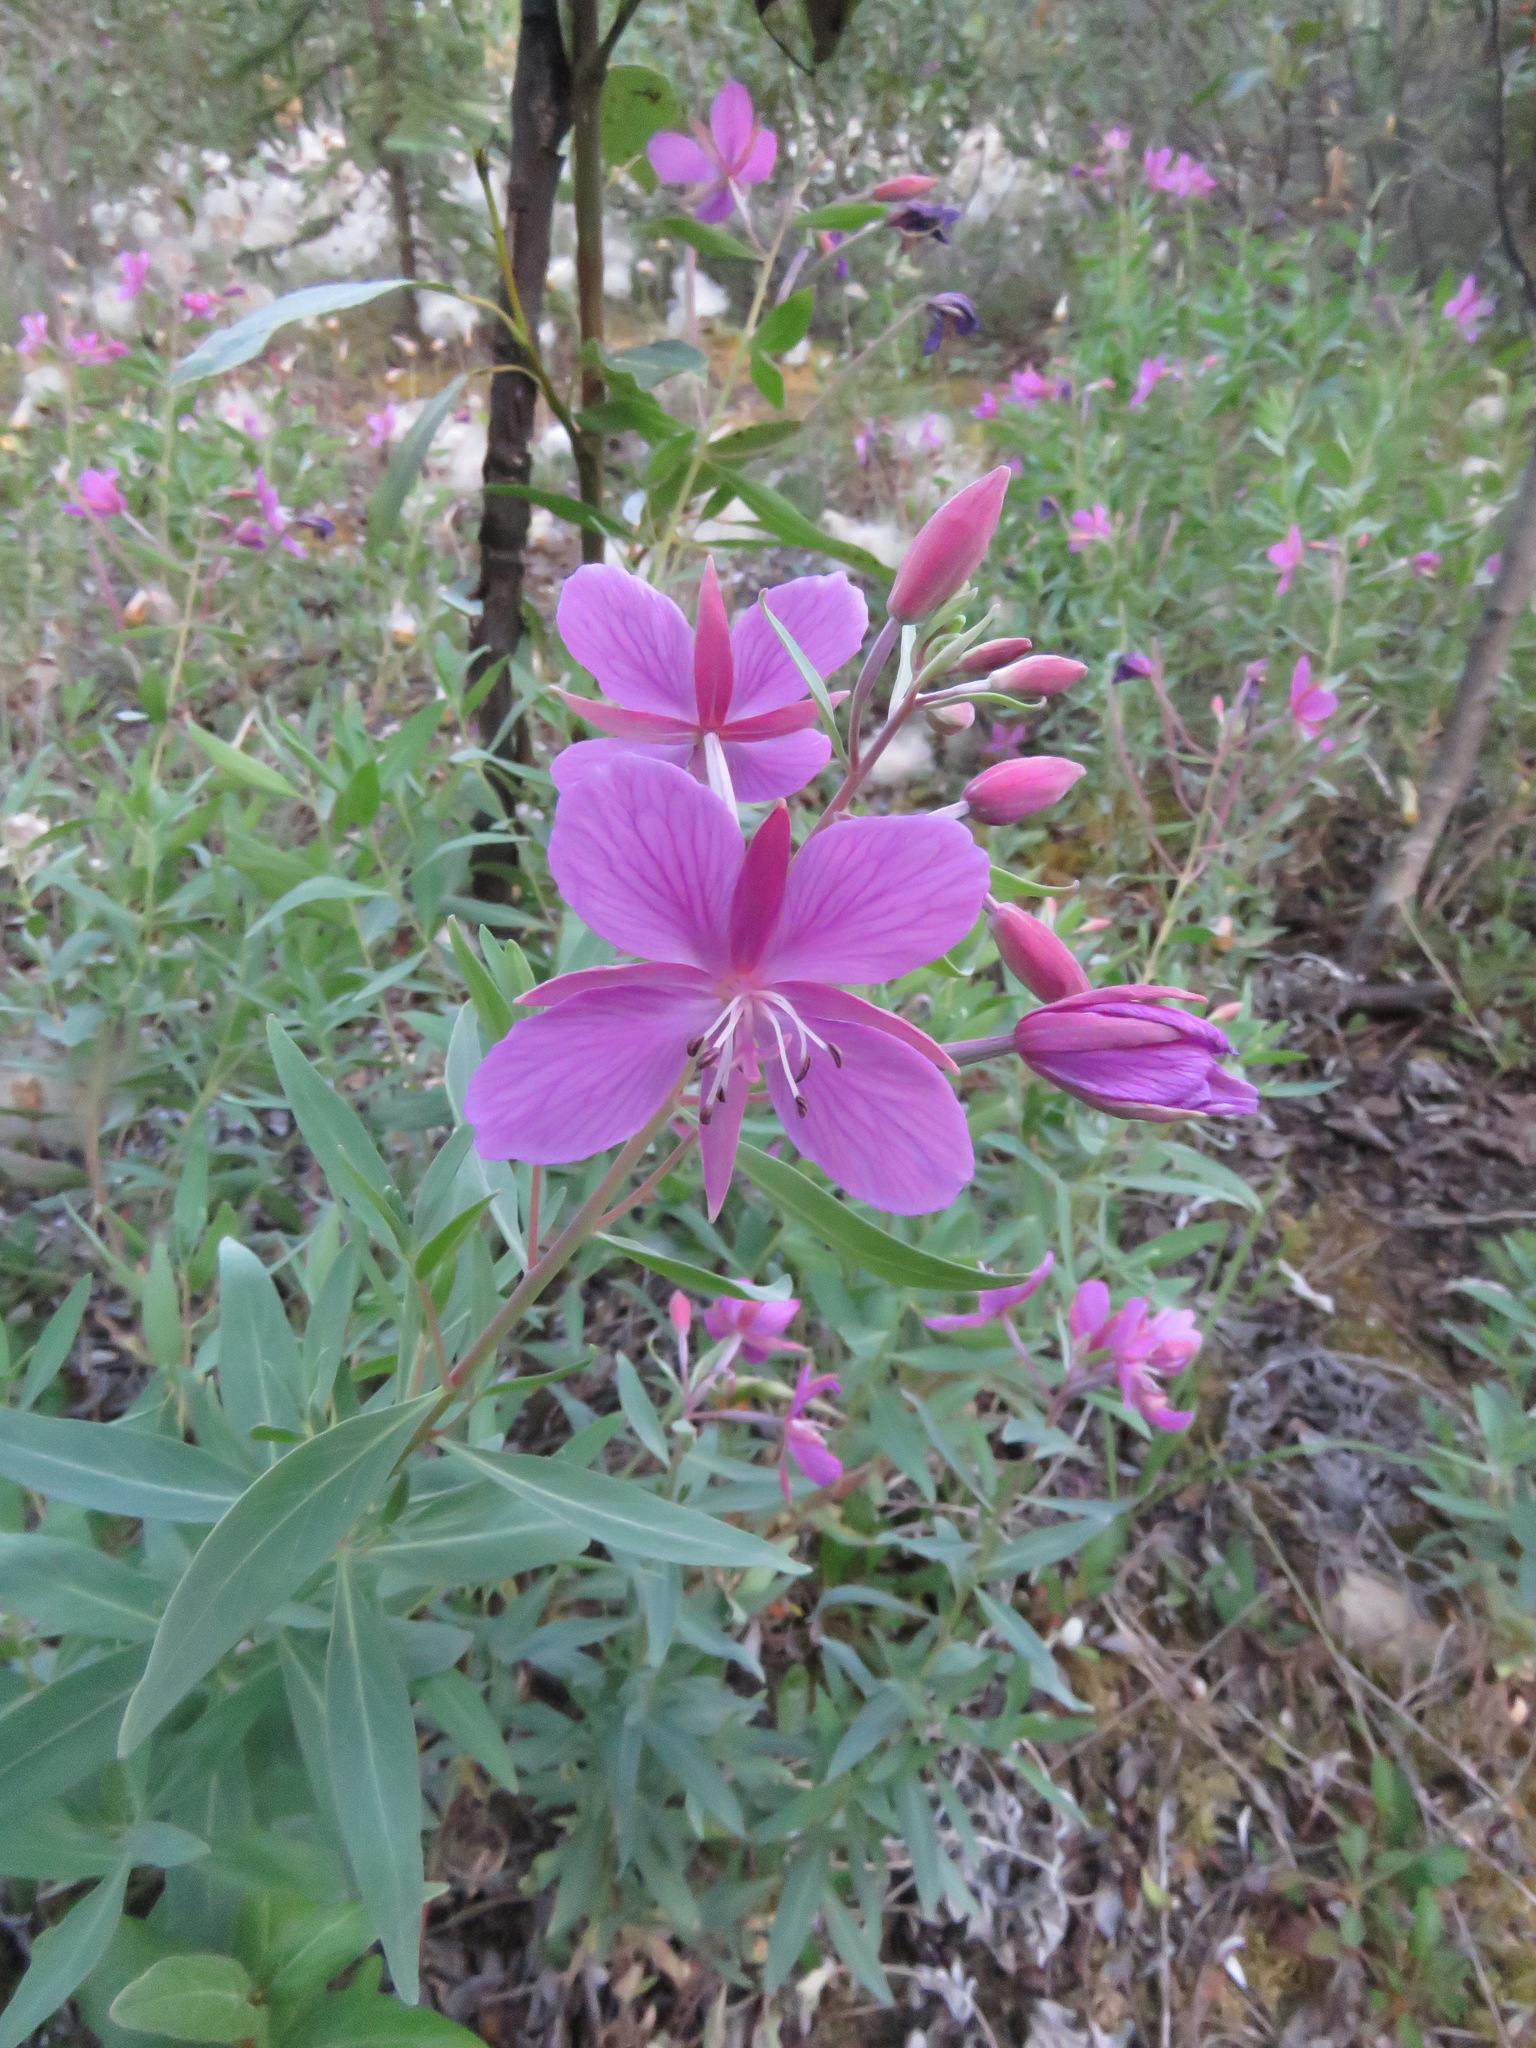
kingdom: Plantae
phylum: Tracheophyta
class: Magnoliopsida
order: Myrtales
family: Onagraceae
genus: Chamaenerion
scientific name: Chamaenerion latifolium
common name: Dwarf fireweed
